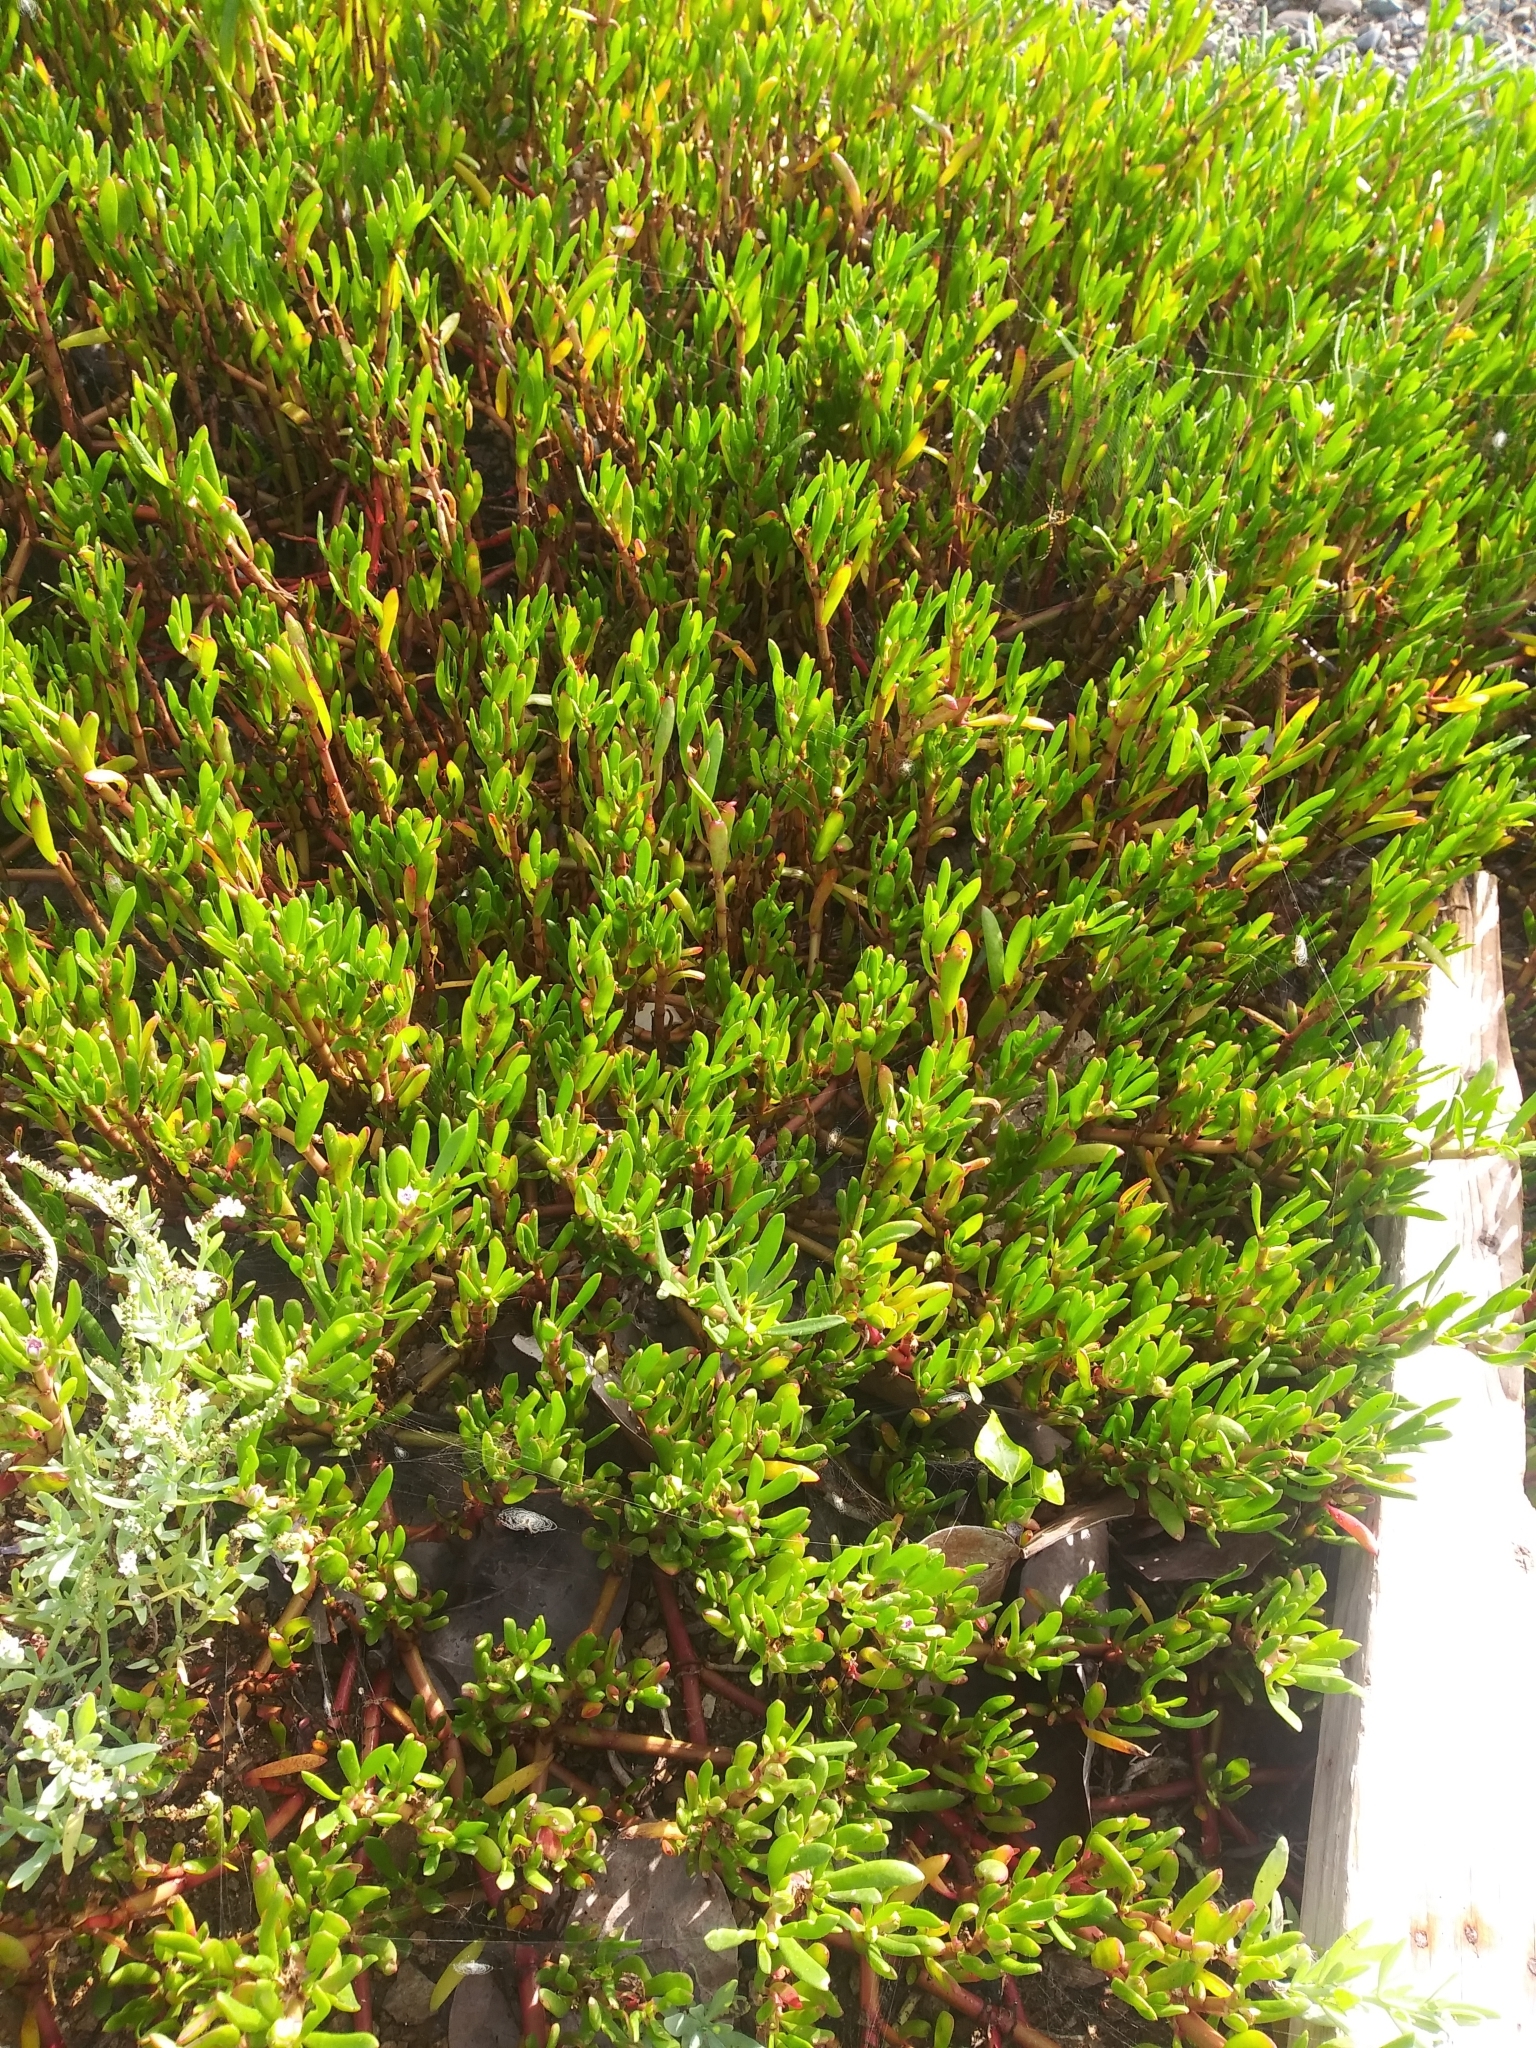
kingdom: Plantae
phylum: Tracheophyta
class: Magnoliopsida
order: Caryophyllales
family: Aizoaceae
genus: Sesuvium
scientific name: Sesuvium portulacastrum
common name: Sea-purslane
